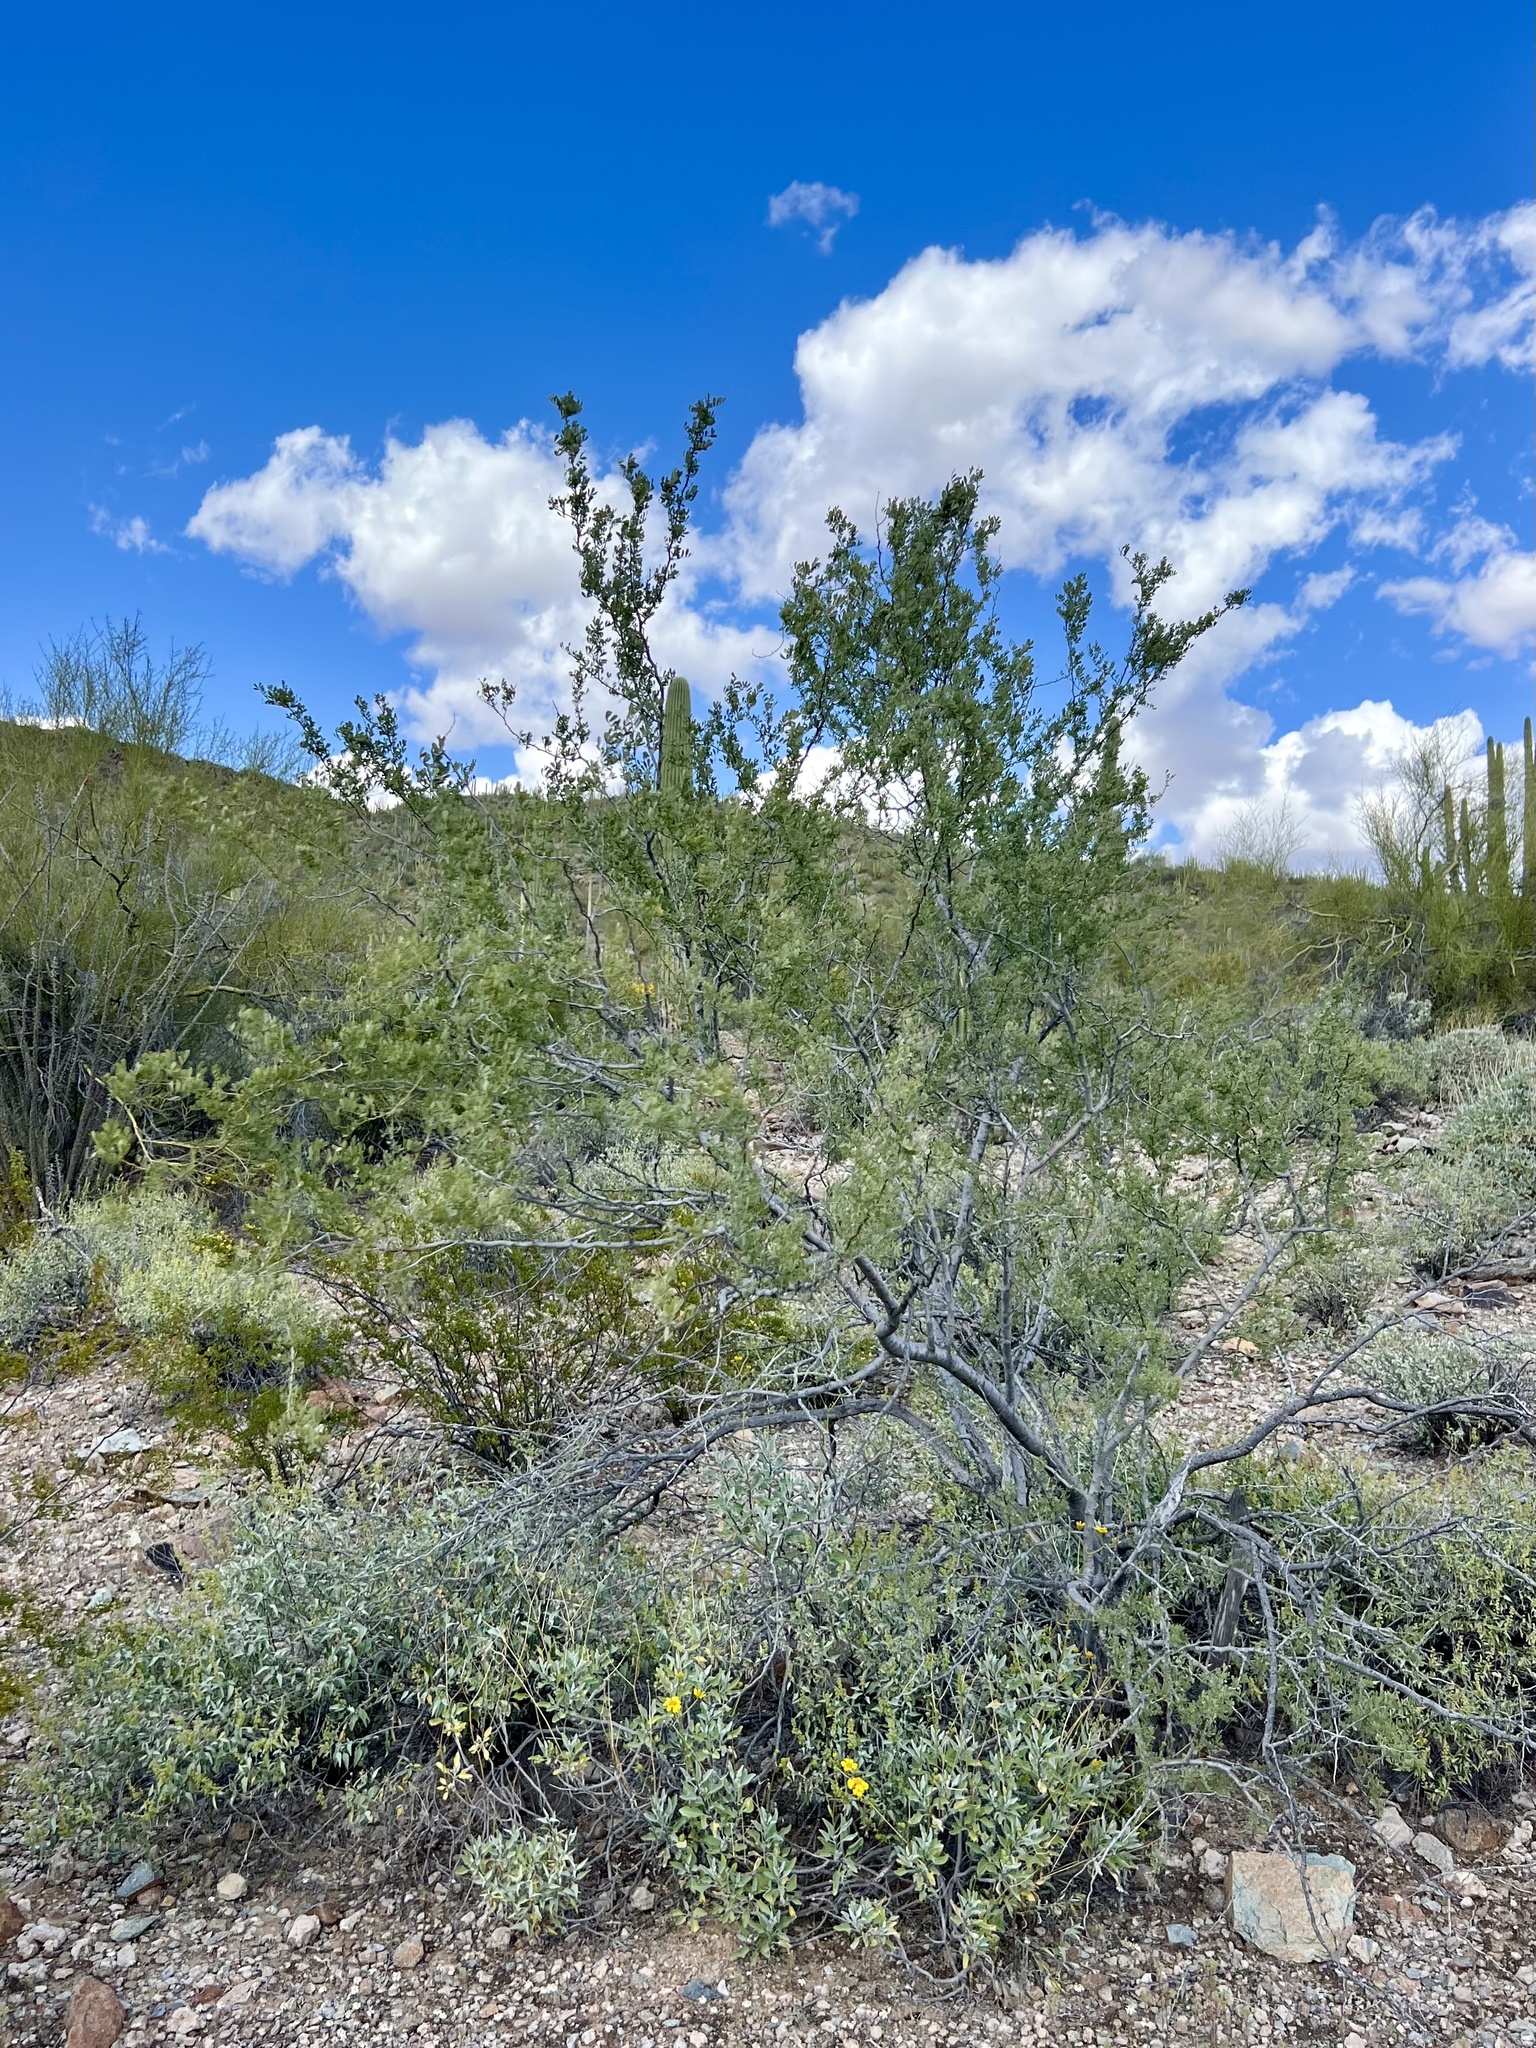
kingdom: Plantae
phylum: Tracheophyta
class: Magnoliopsida
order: Fabales
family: Fabaceae
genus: Olneya
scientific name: Olneya tesota
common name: Desert ironwood
